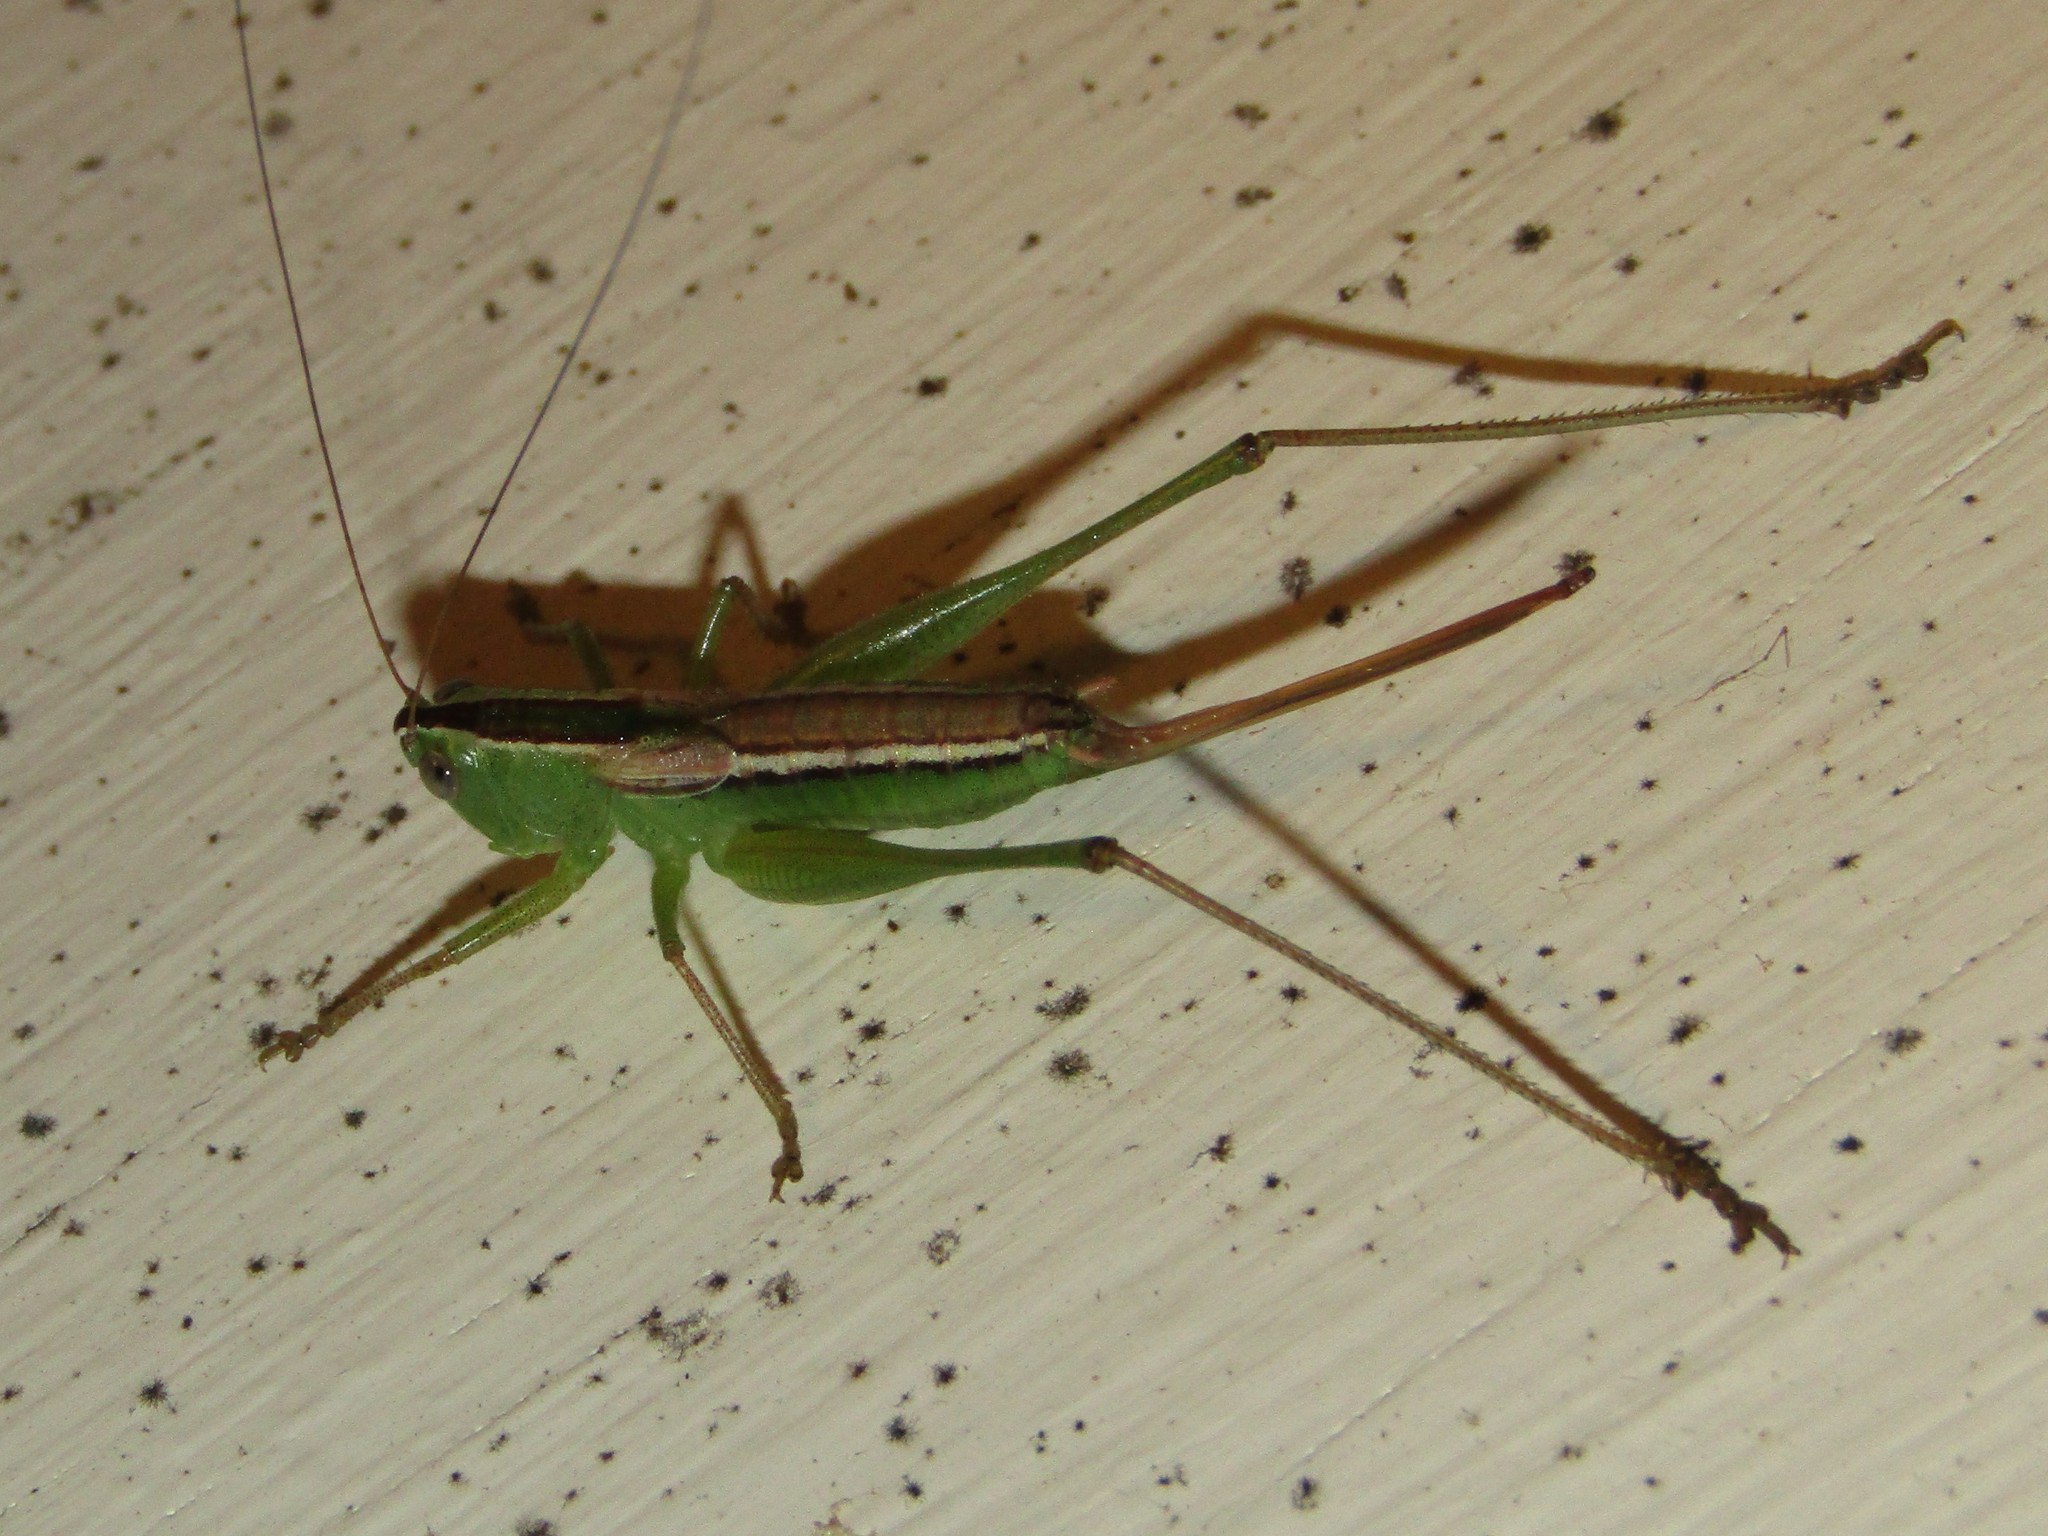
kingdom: Animalia
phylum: Arthropoda
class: Insecta
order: Orthoptera
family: Tettigoniidae
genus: Conocephalus
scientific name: Conocephalus saltans
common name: Prairie meadow katydid
